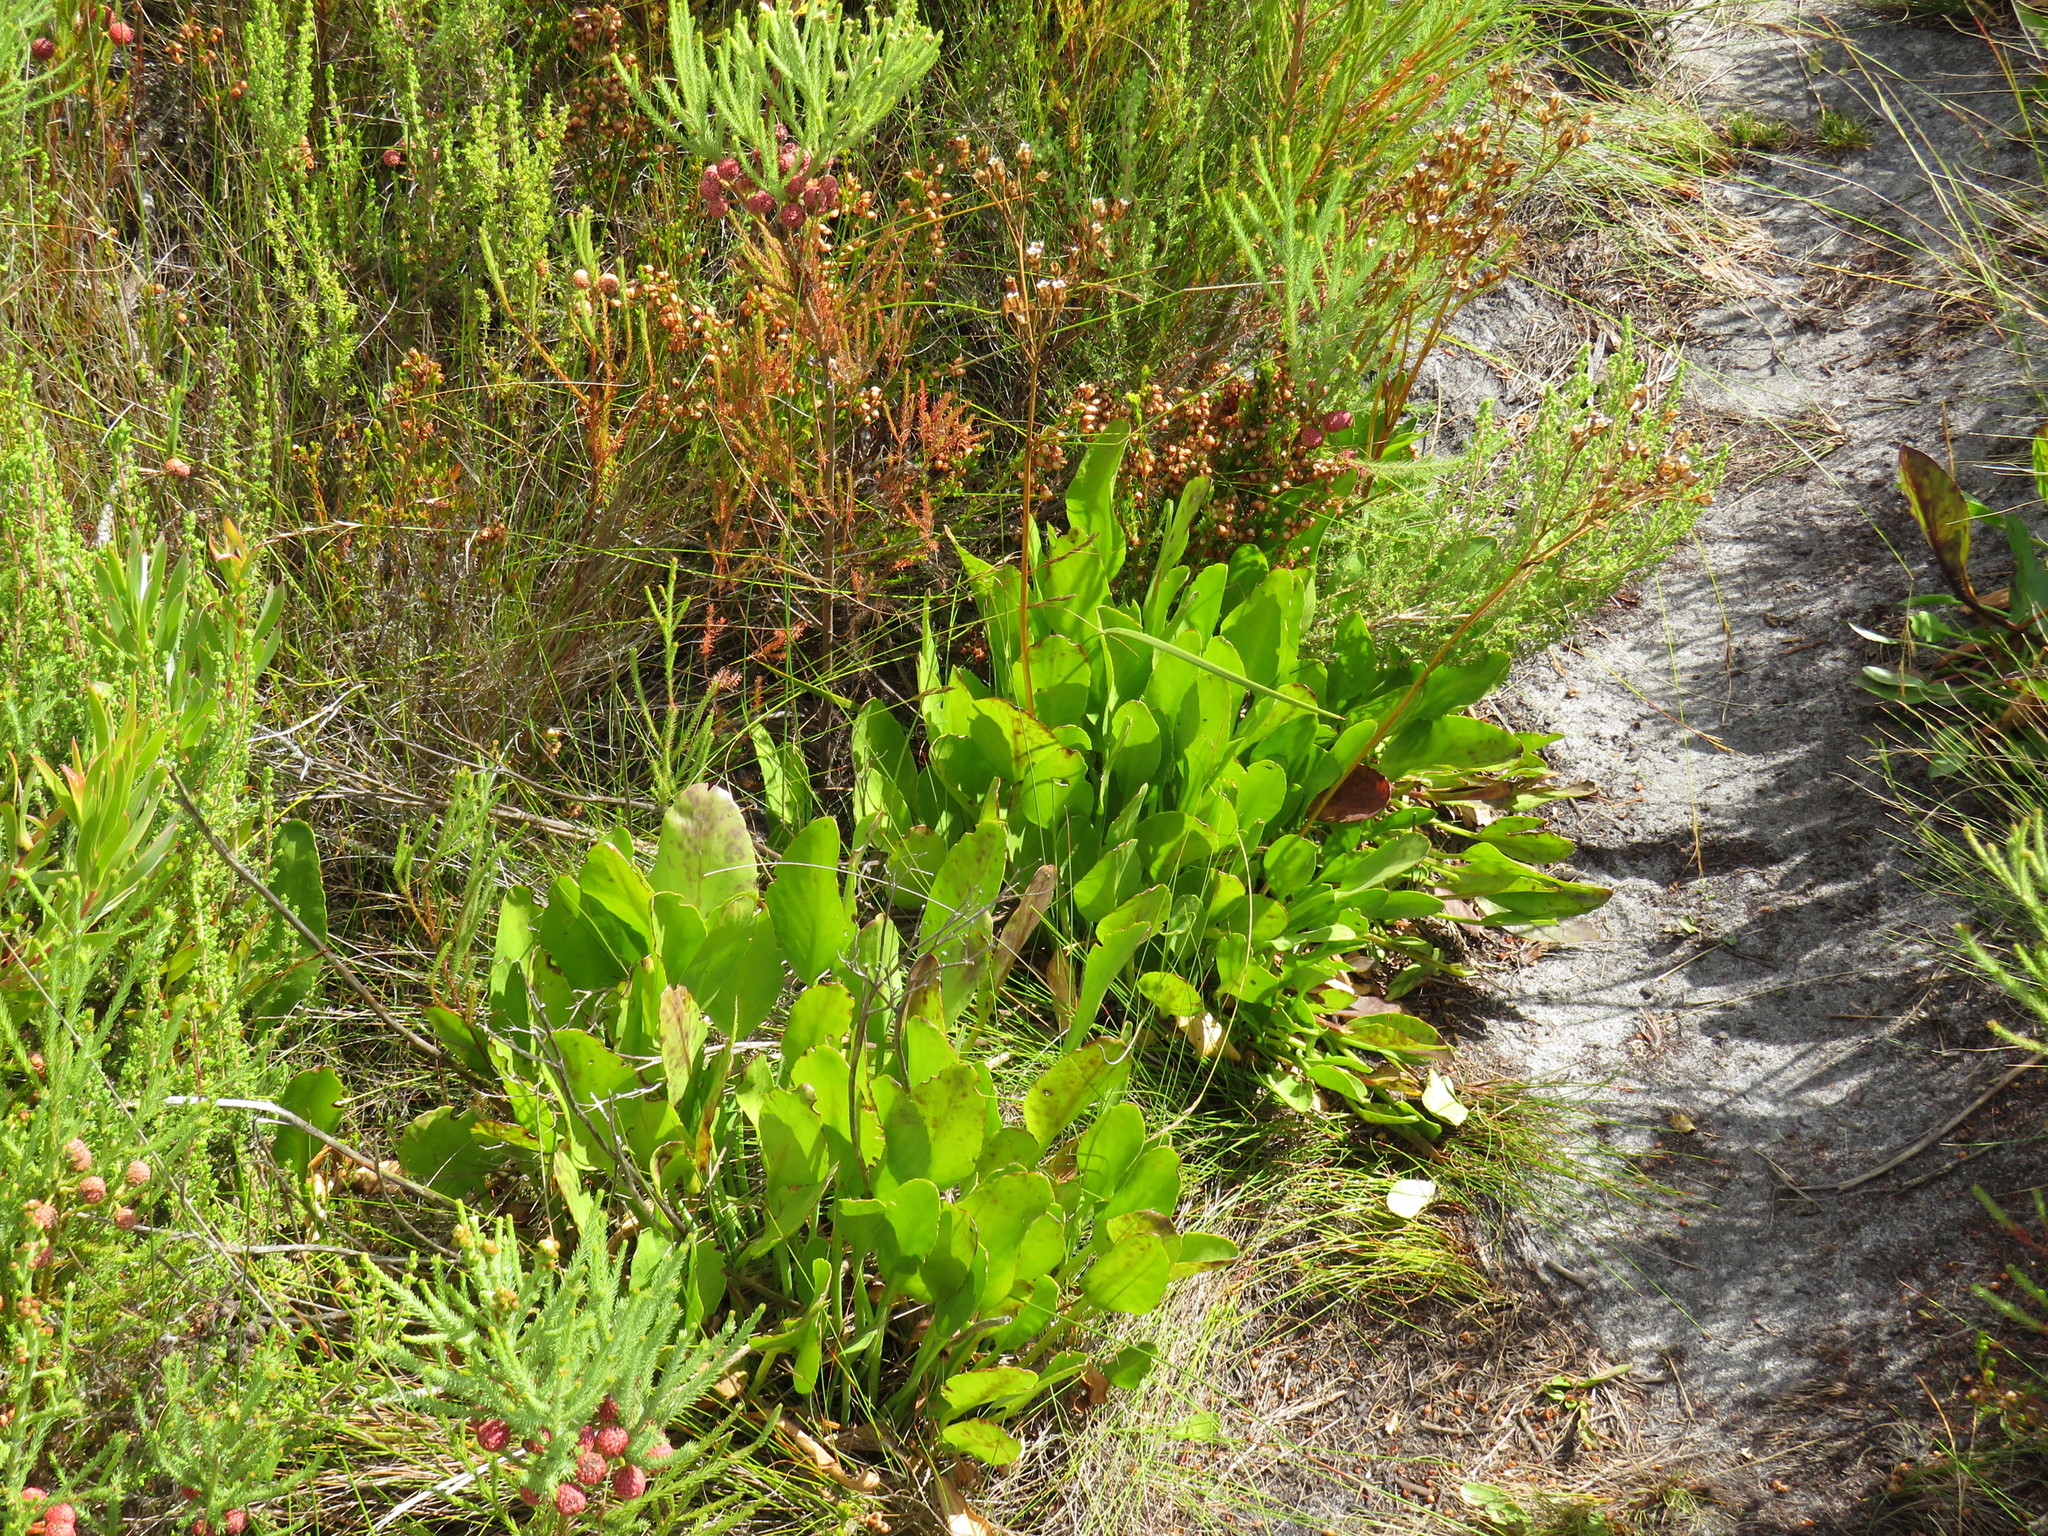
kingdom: Plantae
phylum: Tracheophyta
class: Magnoliopsida
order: Asterales
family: Menyanthaceae
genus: Villarsia
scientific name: Villarsia goldblattiana
